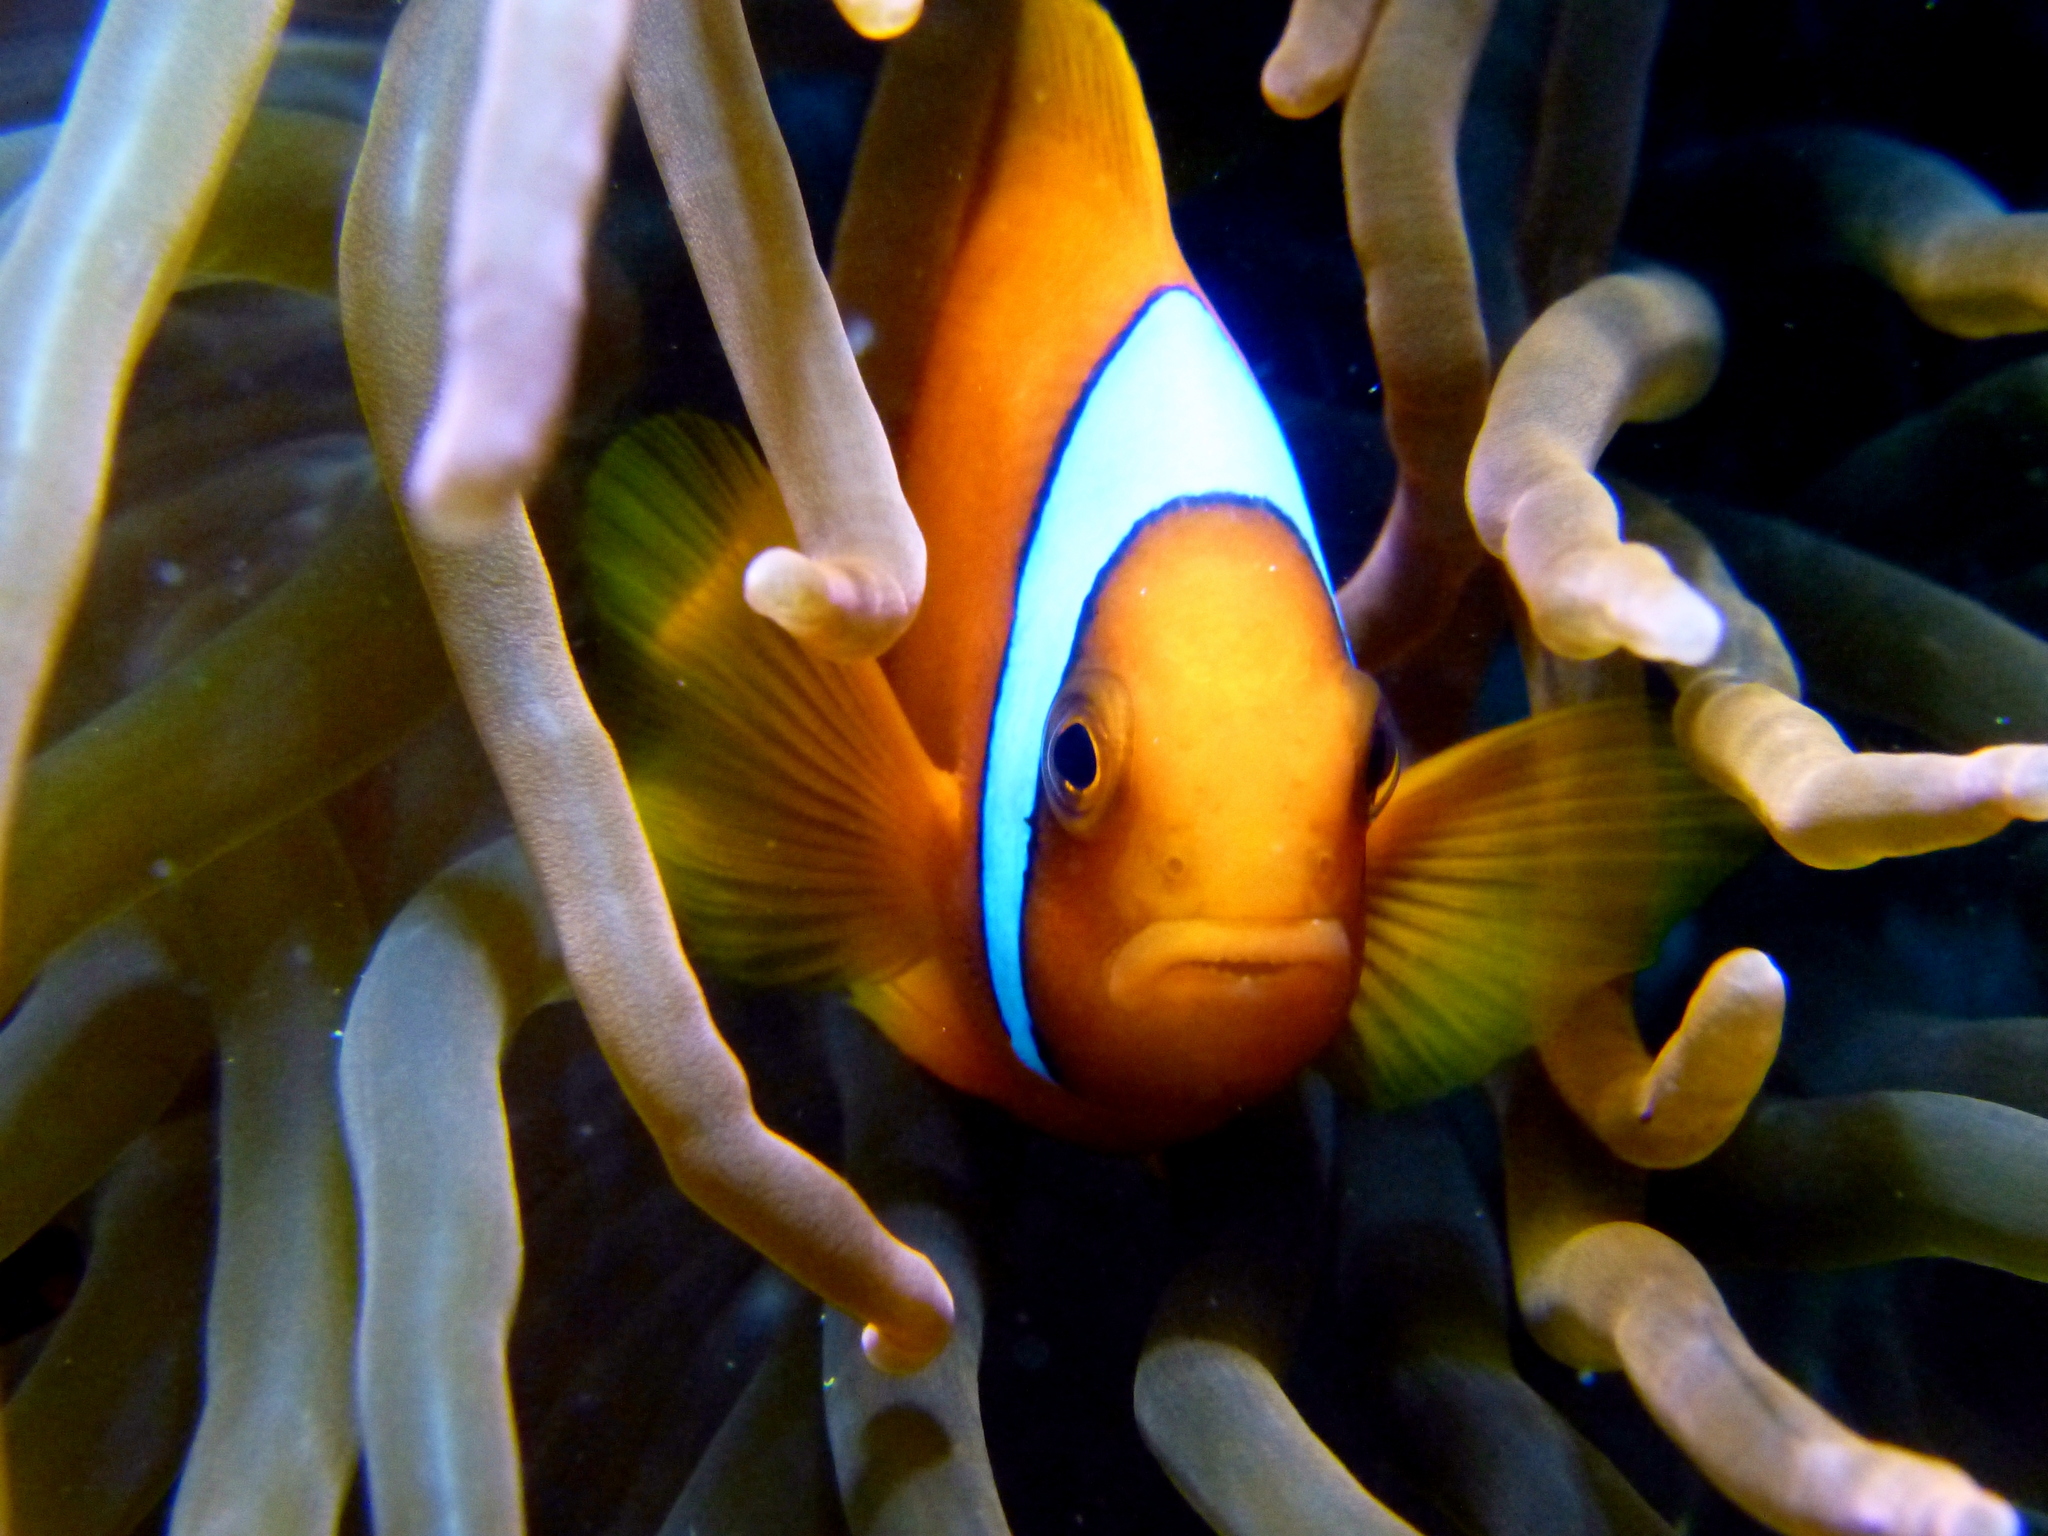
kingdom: Animalia
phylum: Chordata
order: Perciformes
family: Pomacentridae
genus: Amphiprion
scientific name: Amphiprion frenatus
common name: Tomato anemonefish
